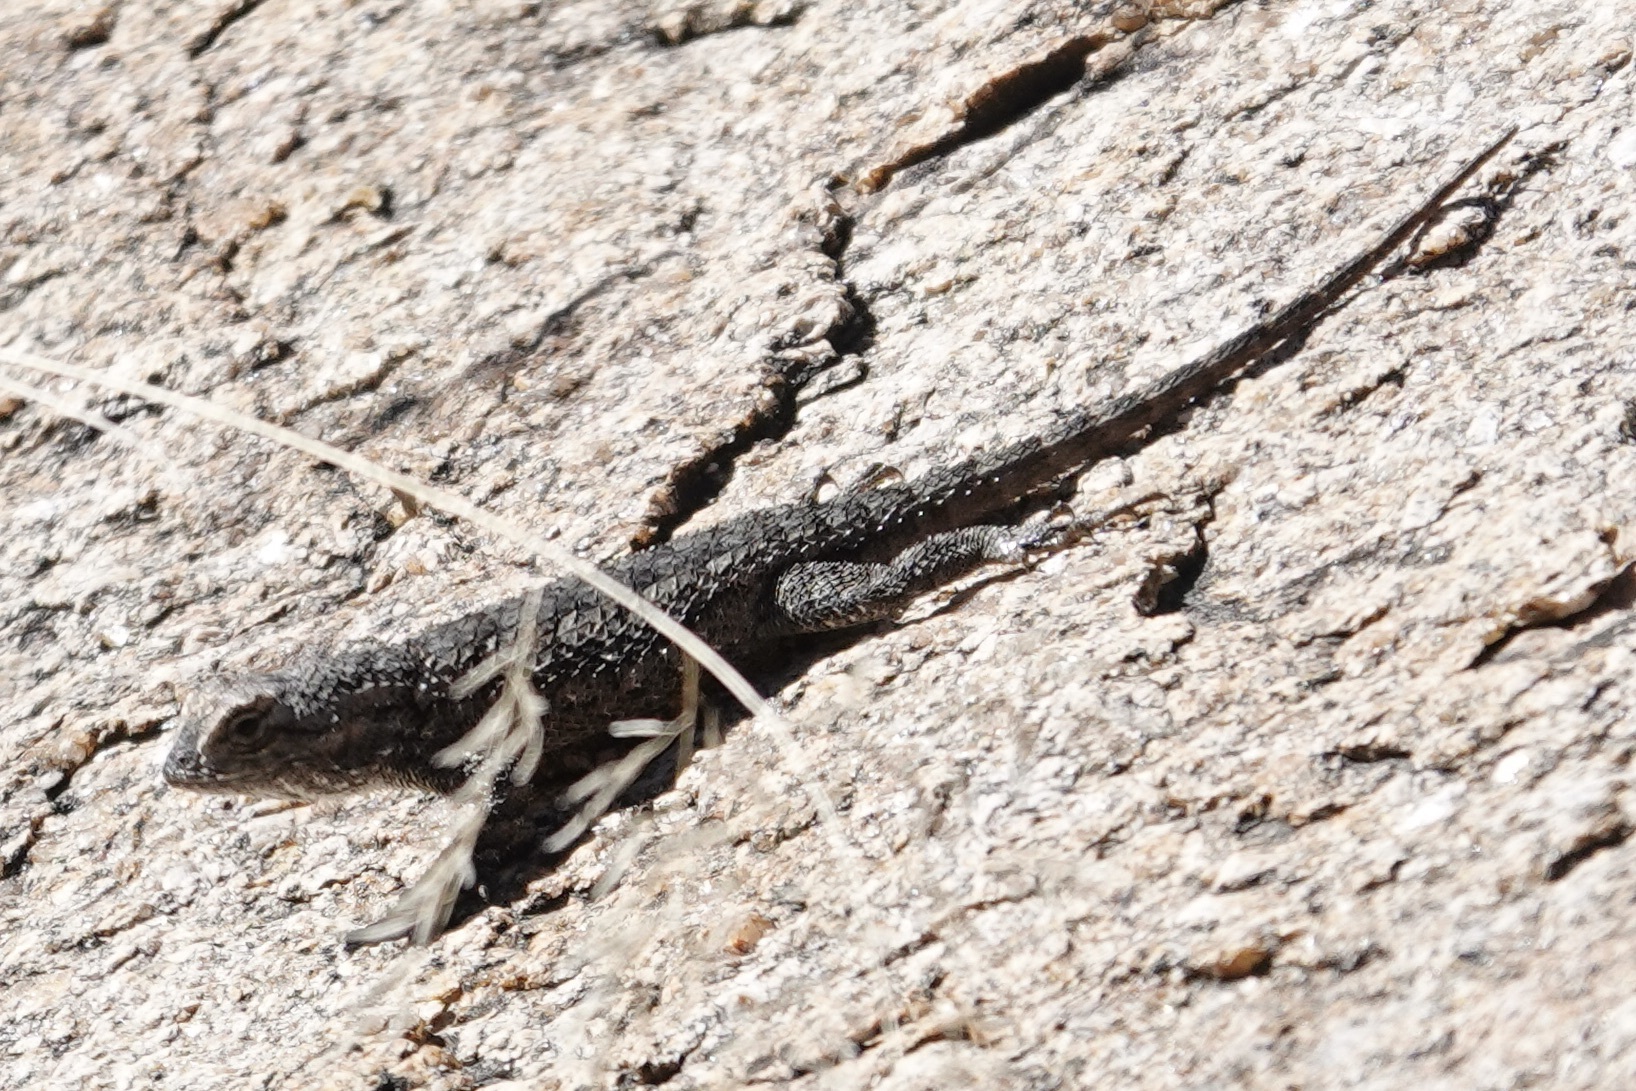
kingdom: Animalia
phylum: Chordata
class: Squamata
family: Phrynosomatidae
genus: Sceloporus
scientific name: Sceloporus clarkii
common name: Clark's spiny lizard
